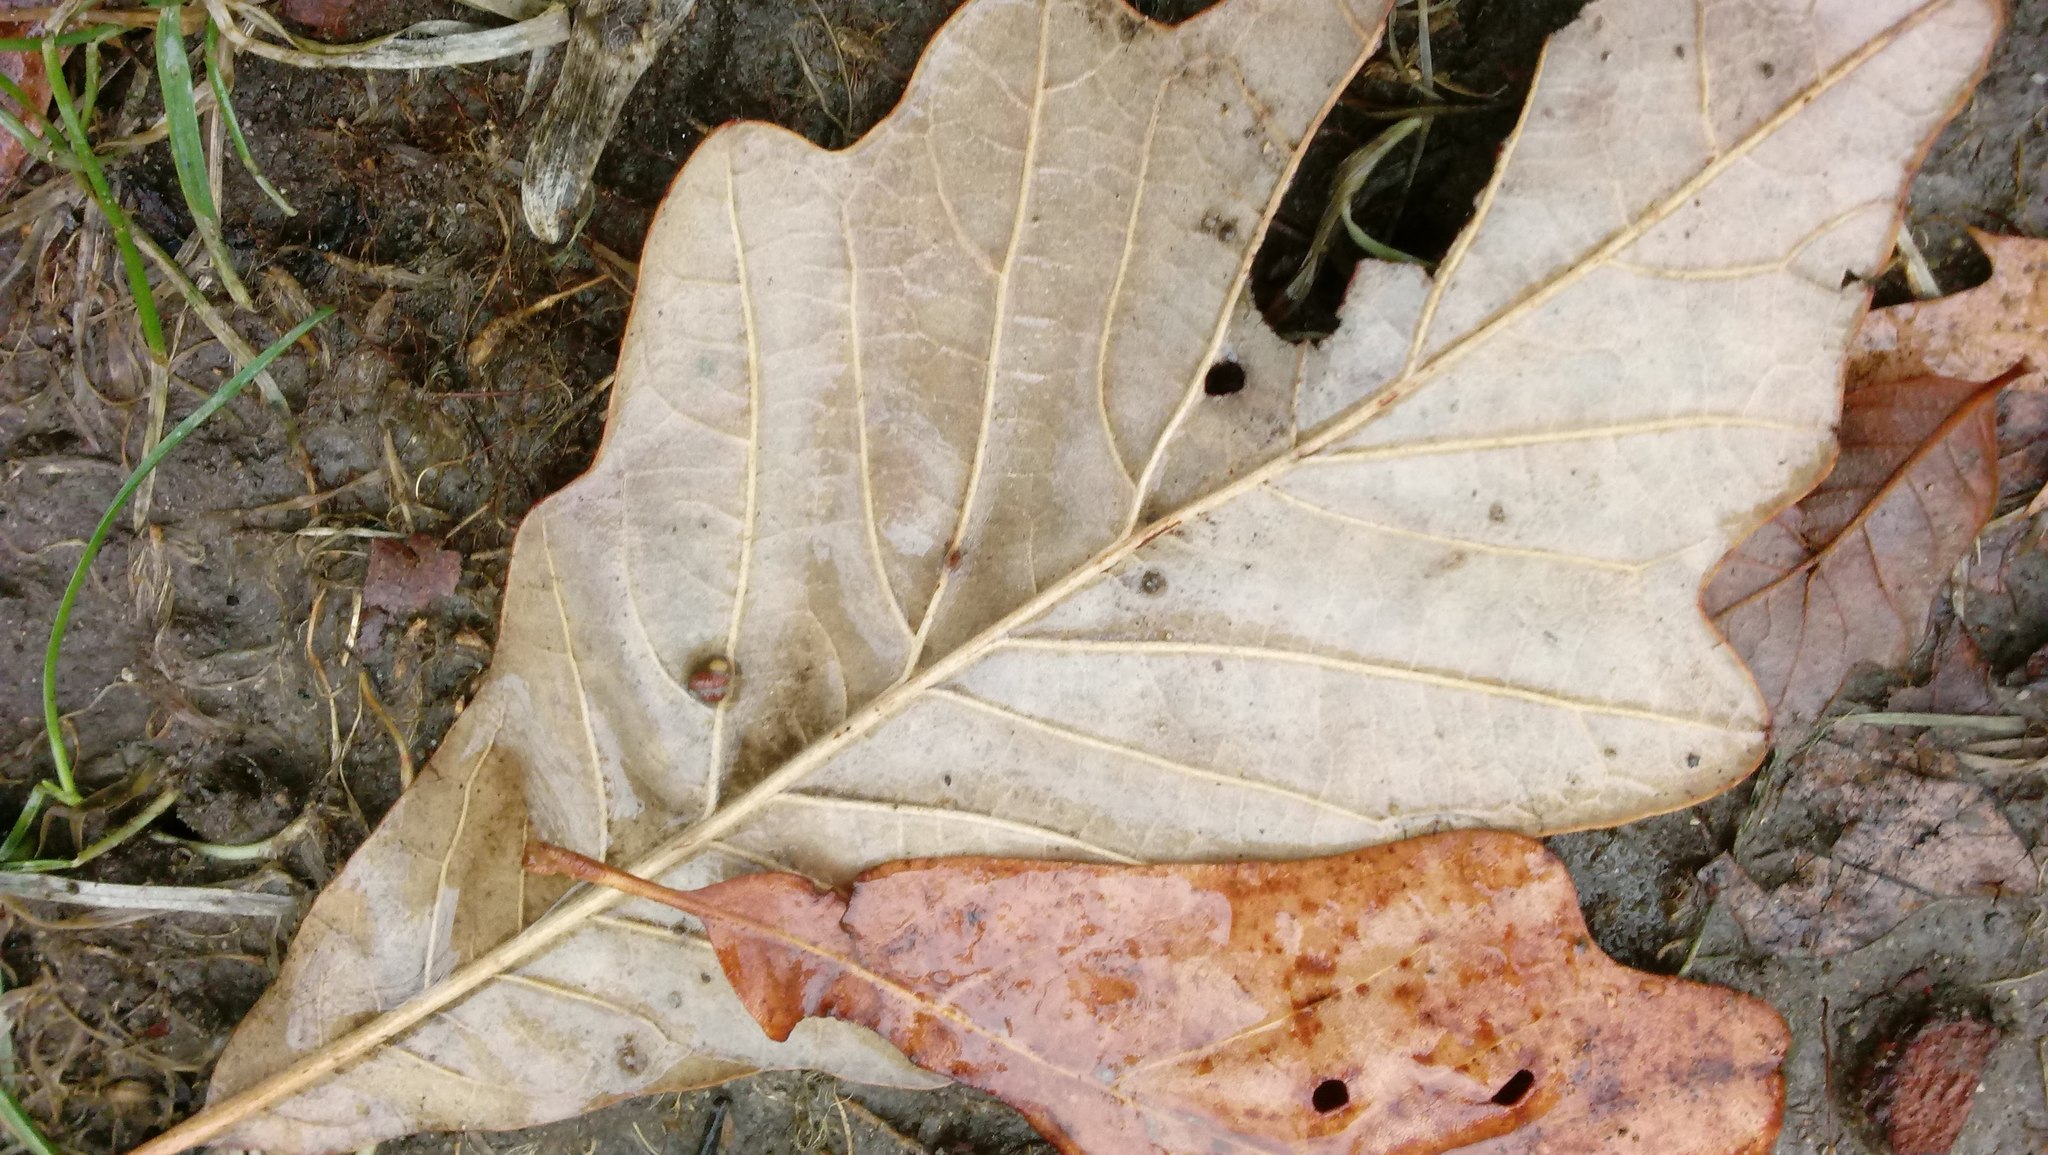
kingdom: Animalia
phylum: Arthropoda
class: Insecta
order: Hymenoptera
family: Cynipidae
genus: Andricus
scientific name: Andricus Druon ignotum
